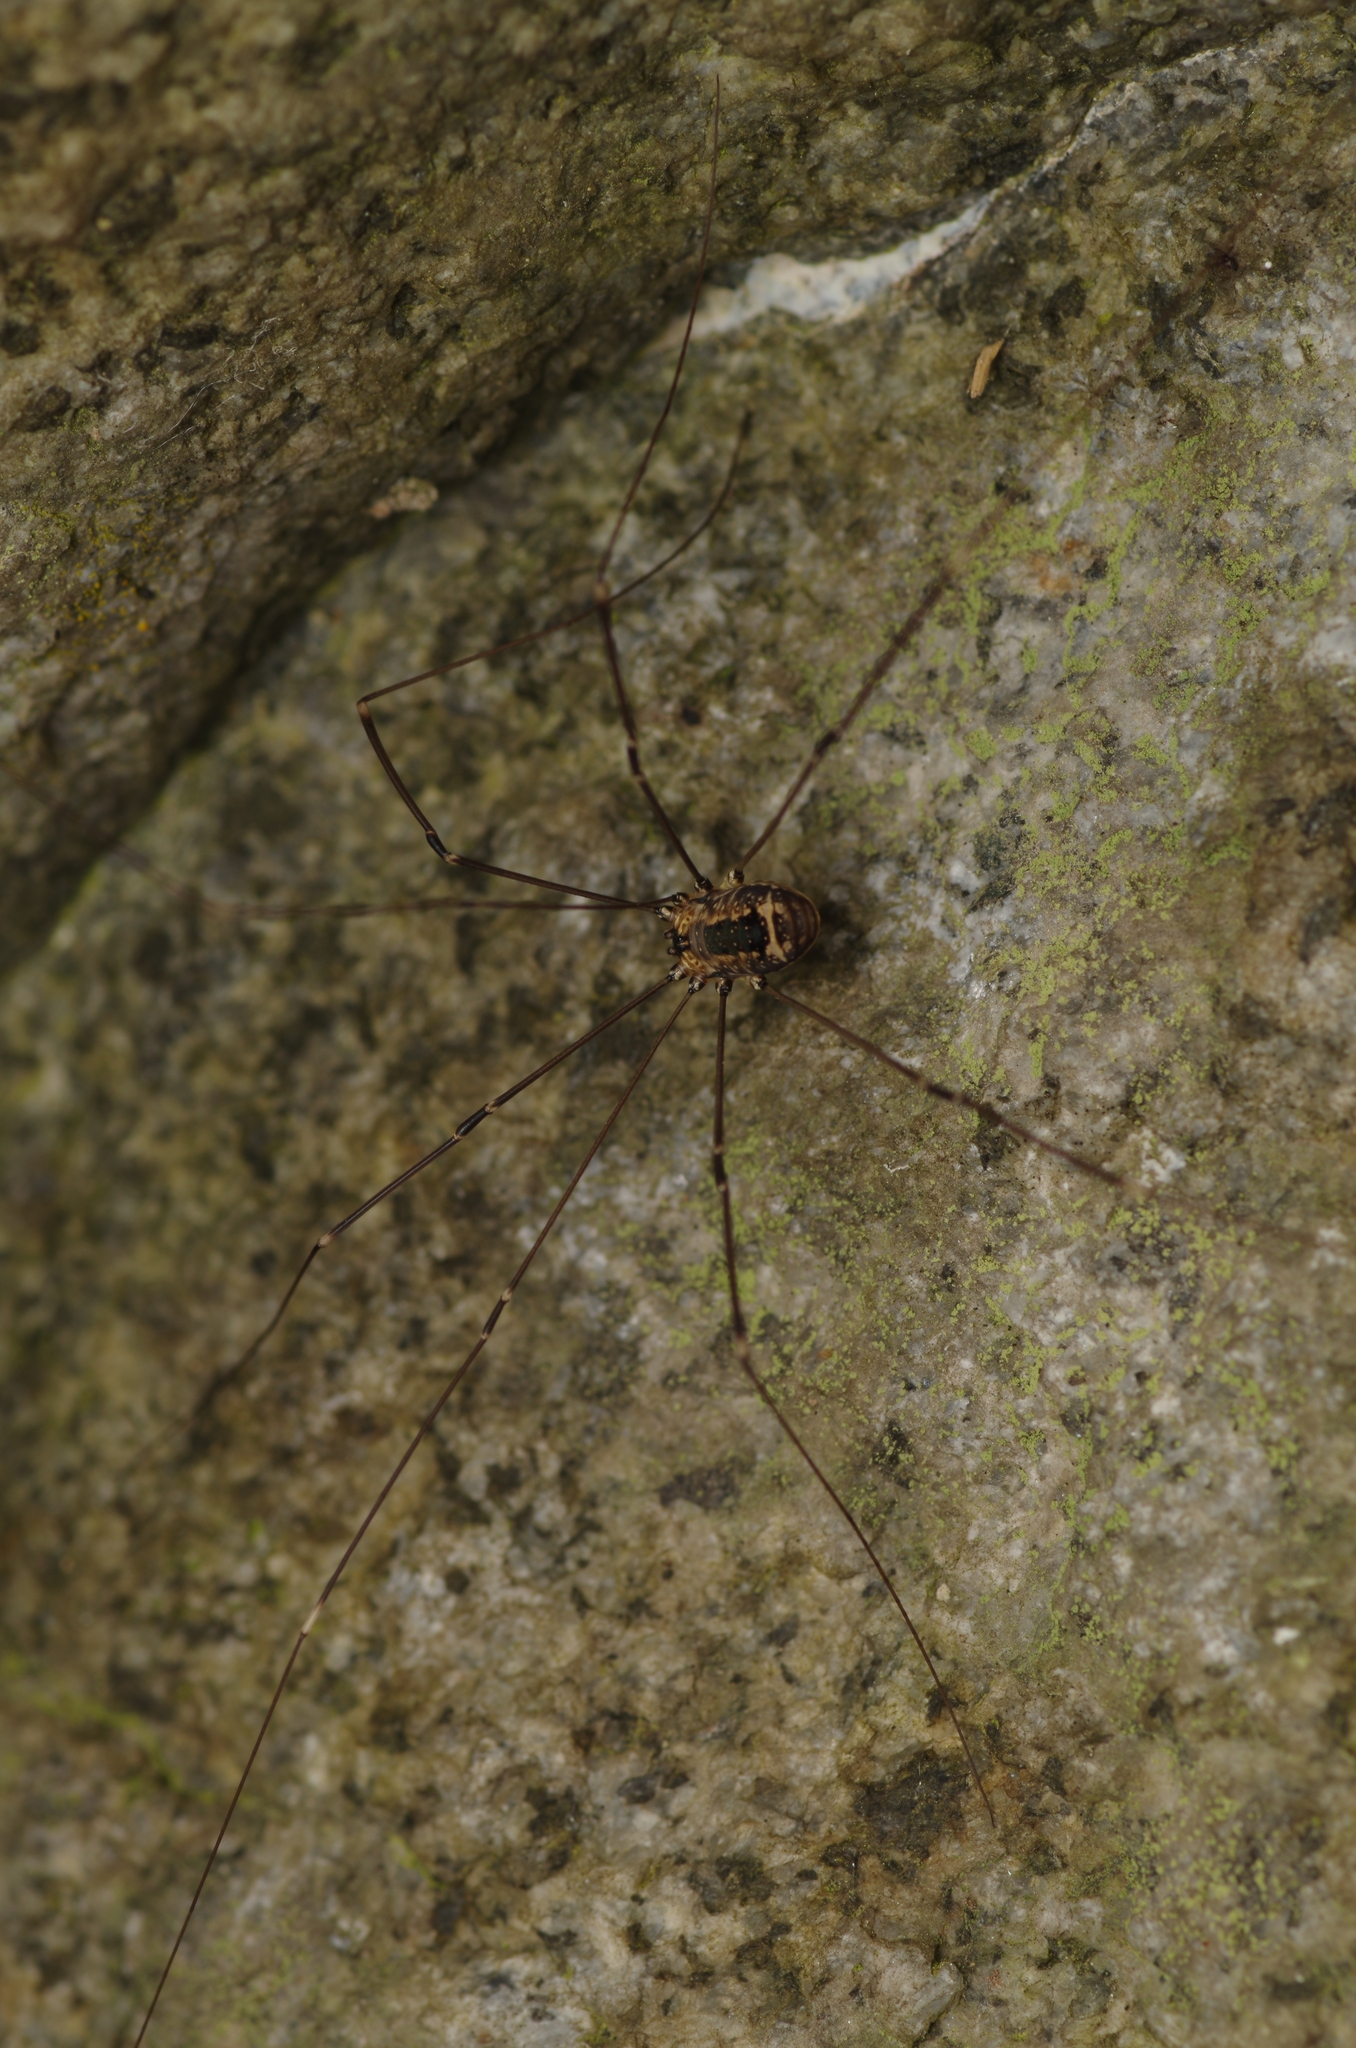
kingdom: Animalia
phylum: Arthropoda
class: Arachnida
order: Opiliones
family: Sclerosomatidae
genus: Leiobunum
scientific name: Leiobunum rotundum
